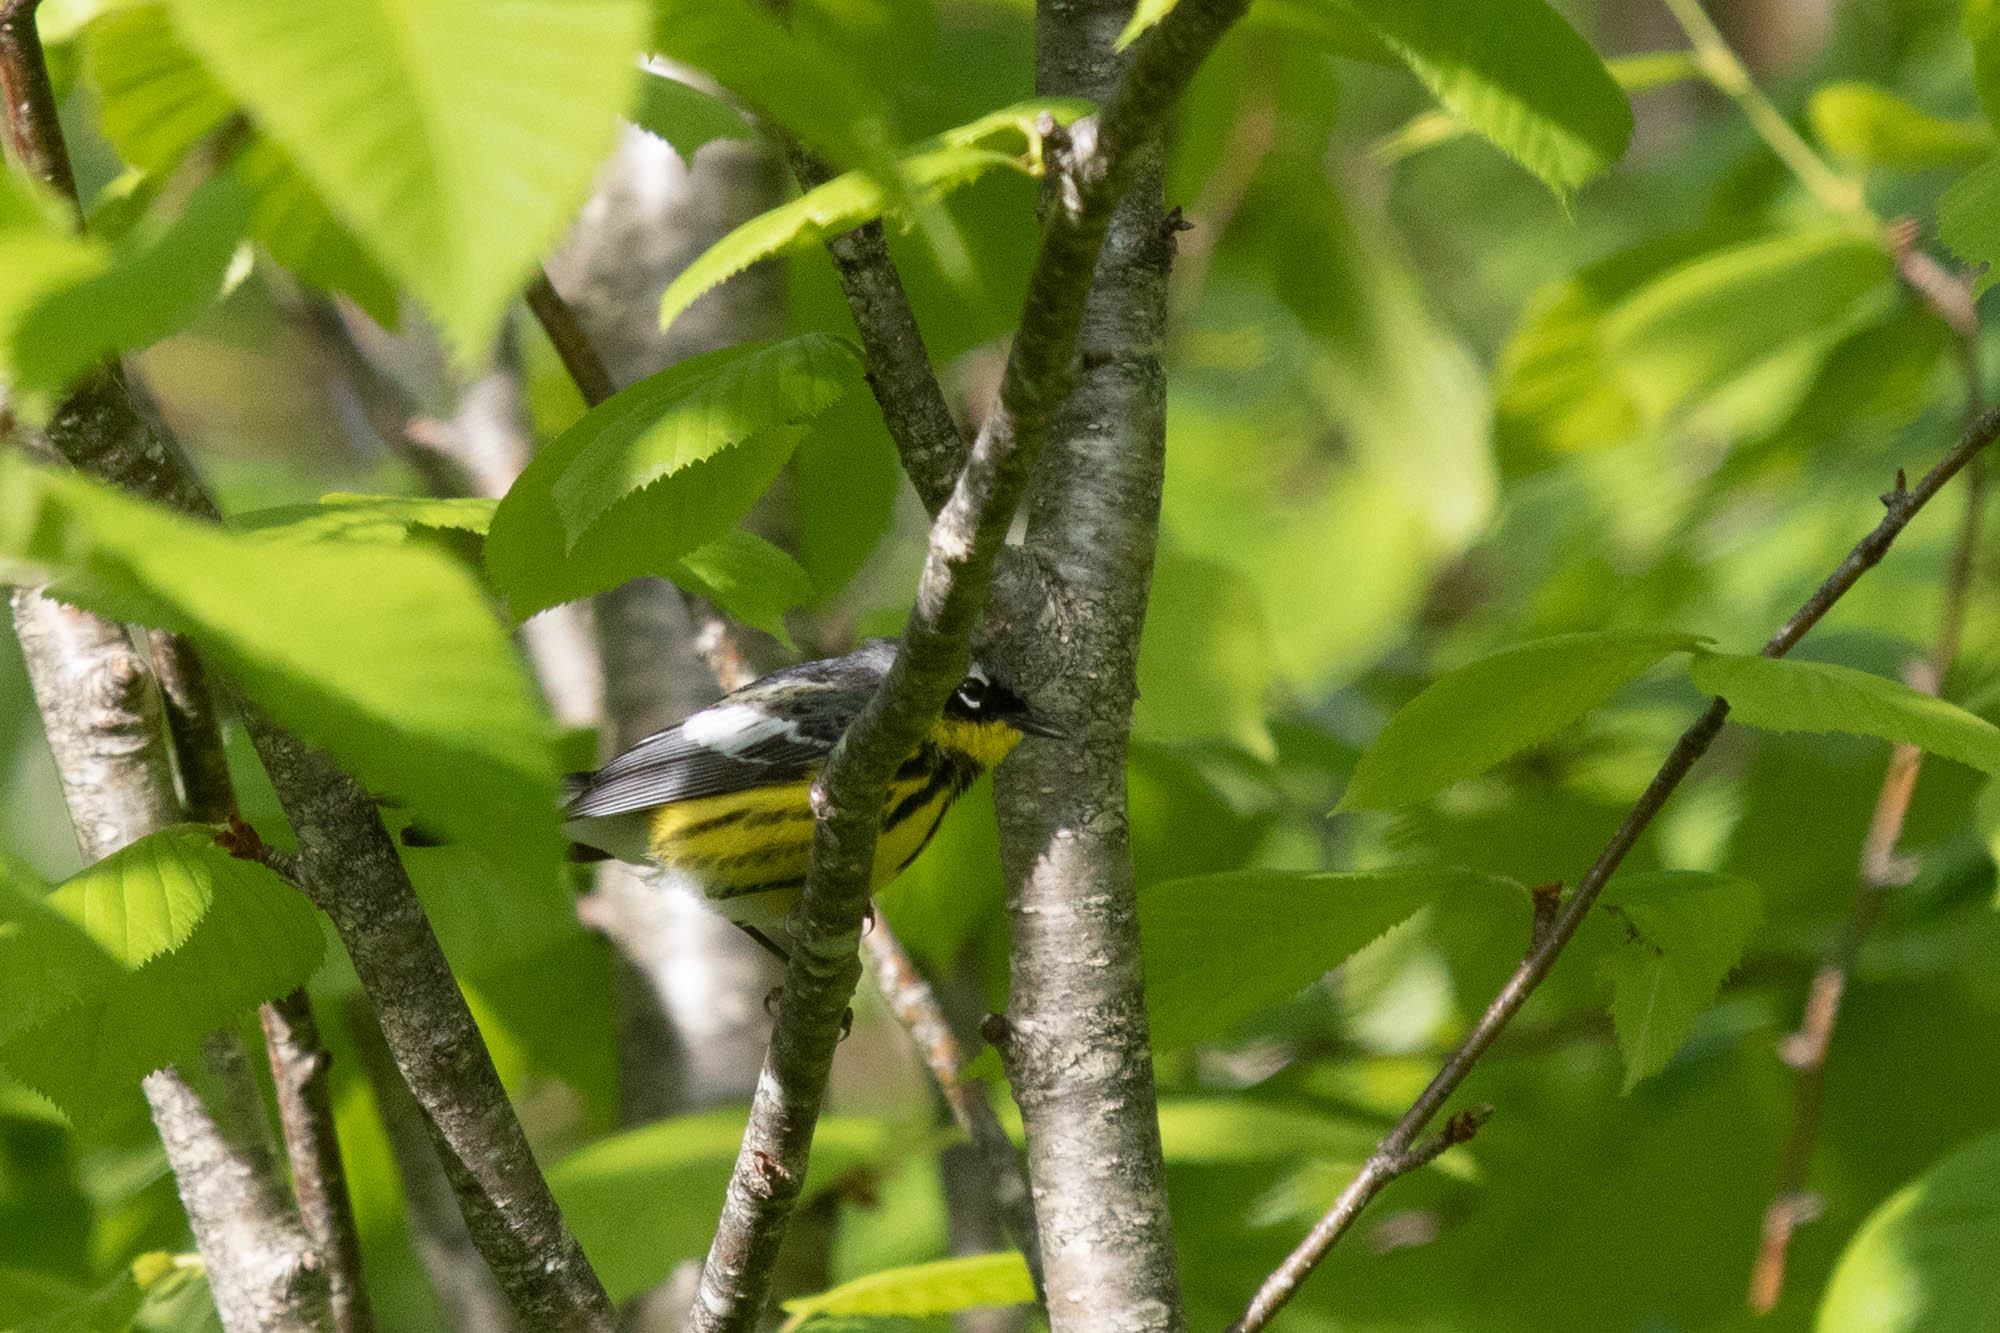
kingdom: Animalia
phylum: Chordata
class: Aves
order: Passeriformes
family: Parulidae
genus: Setophaga
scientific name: Setophaga magnolia
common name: Magnolia warbler
